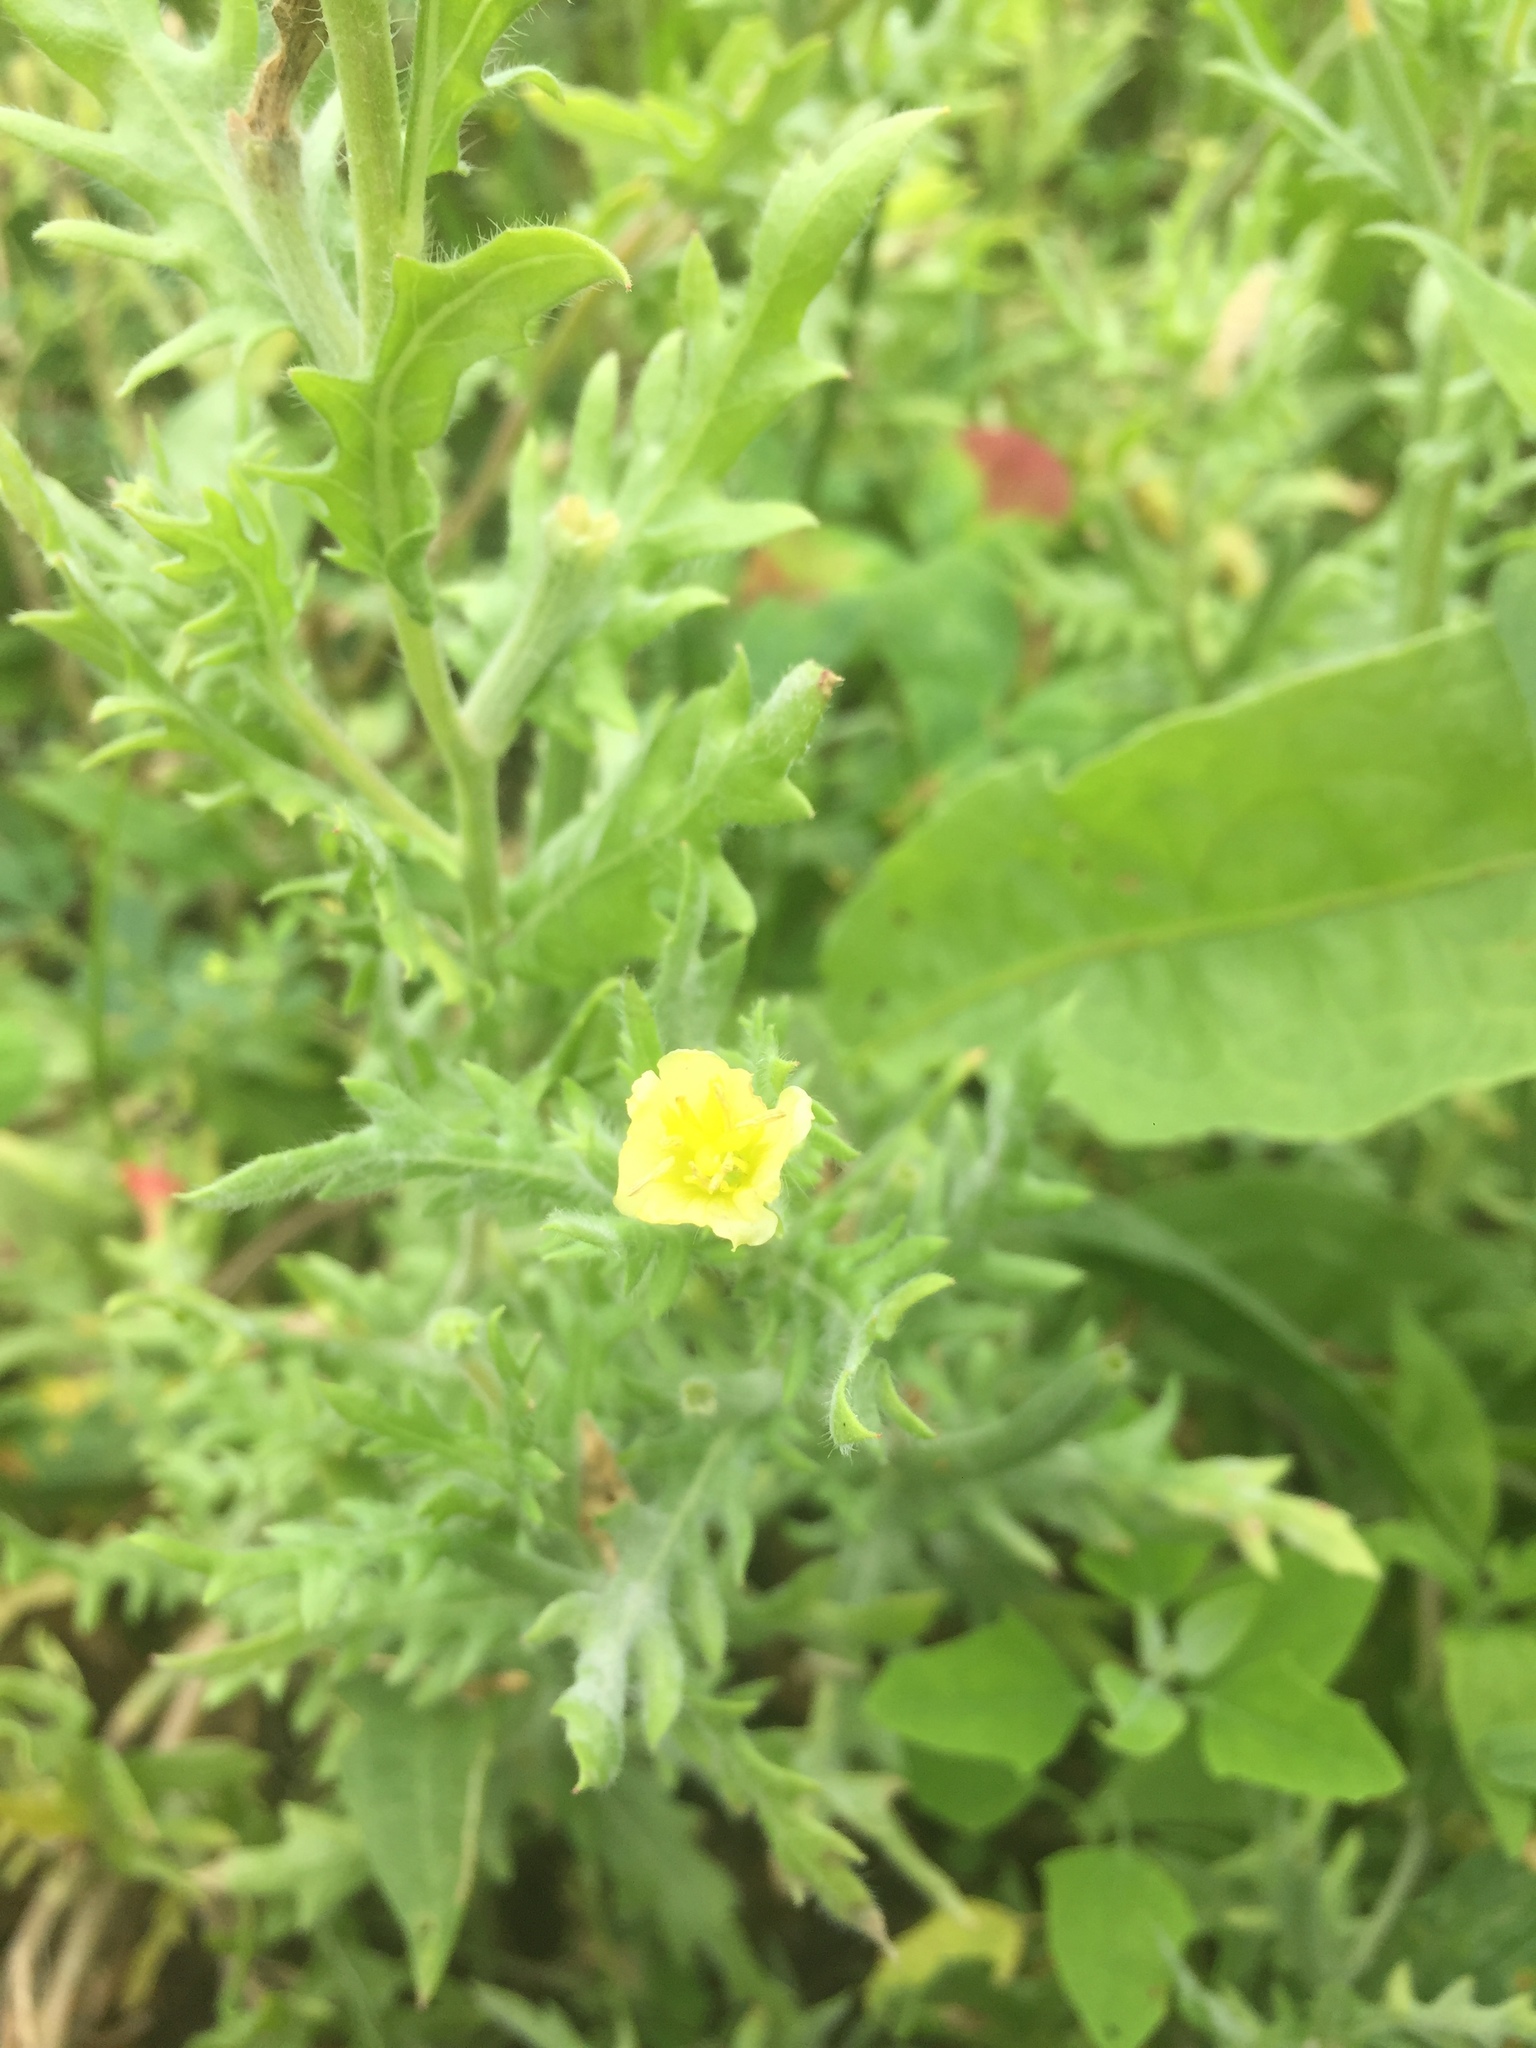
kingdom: Plantae
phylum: Tracheophyta
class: Magnoliopsida
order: Myrtales
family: Onagraceae
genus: Oenothera
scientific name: Oenothera laciniata
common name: Cut-leaved evening-primrose
